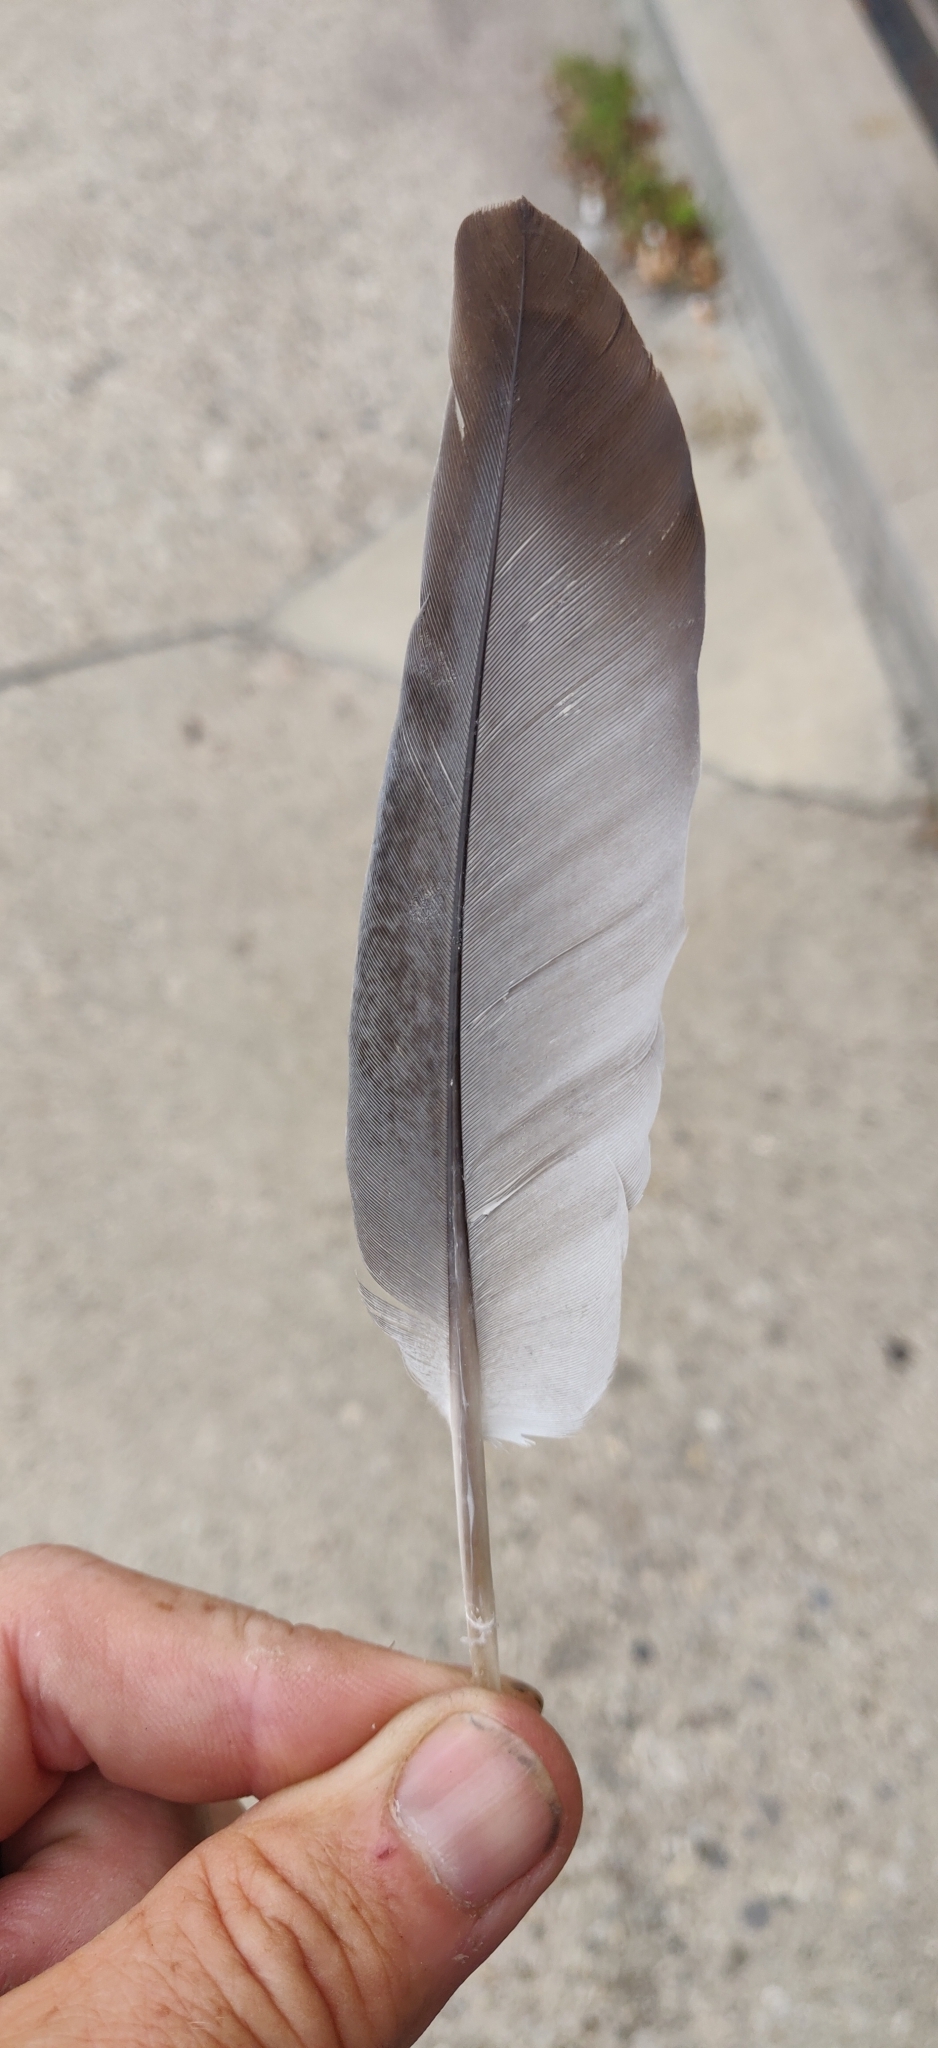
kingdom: Animalia
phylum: Chordata
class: Aves
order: Columbiformes
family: Columbidae
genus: Columba
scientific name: Columba livia
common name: Rock pigeon
